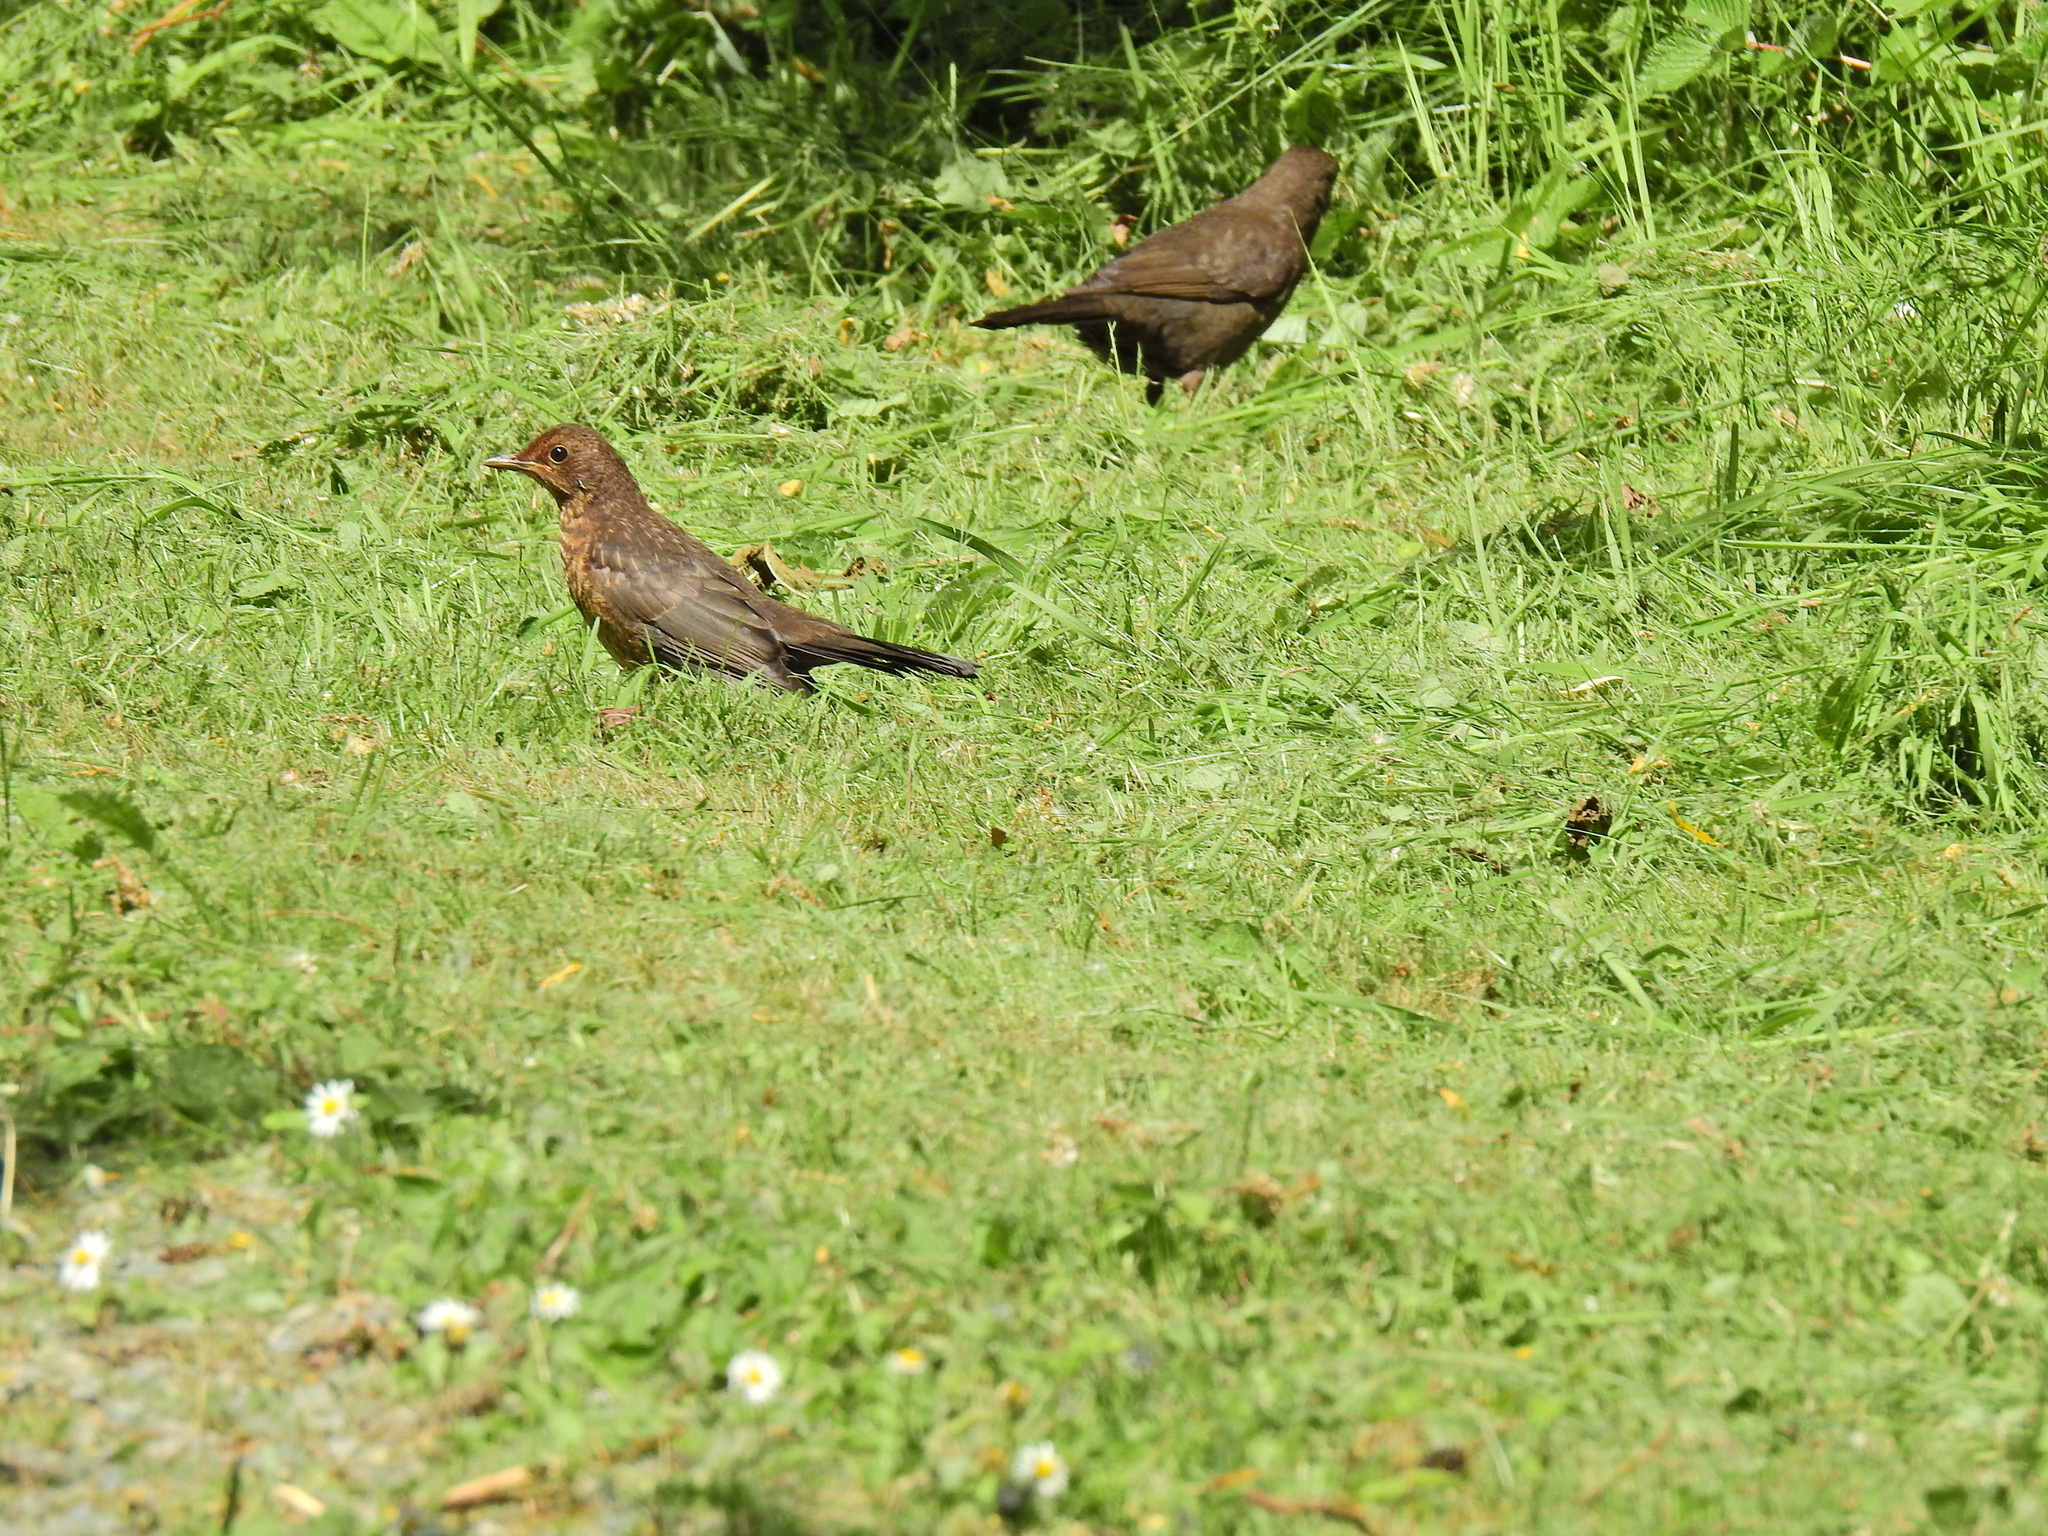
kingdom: Animalia
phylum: Chordata
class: Aves
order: Passeriformes
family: Turdidae
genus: Turdus
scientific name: Turdus merula
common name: Common blackbird
